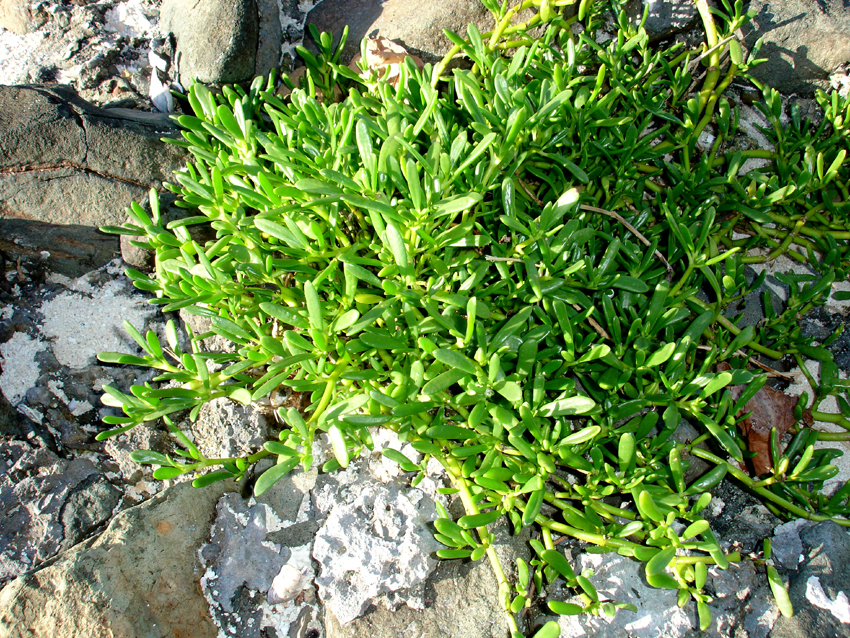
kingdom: Plantae
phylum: Tracheophyta
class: Magnoliopsida
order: Caryophyllales
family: Aizoaceae
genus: Sesuvium
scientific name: Sesuvium portulacastrum
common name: Sea-purslane
